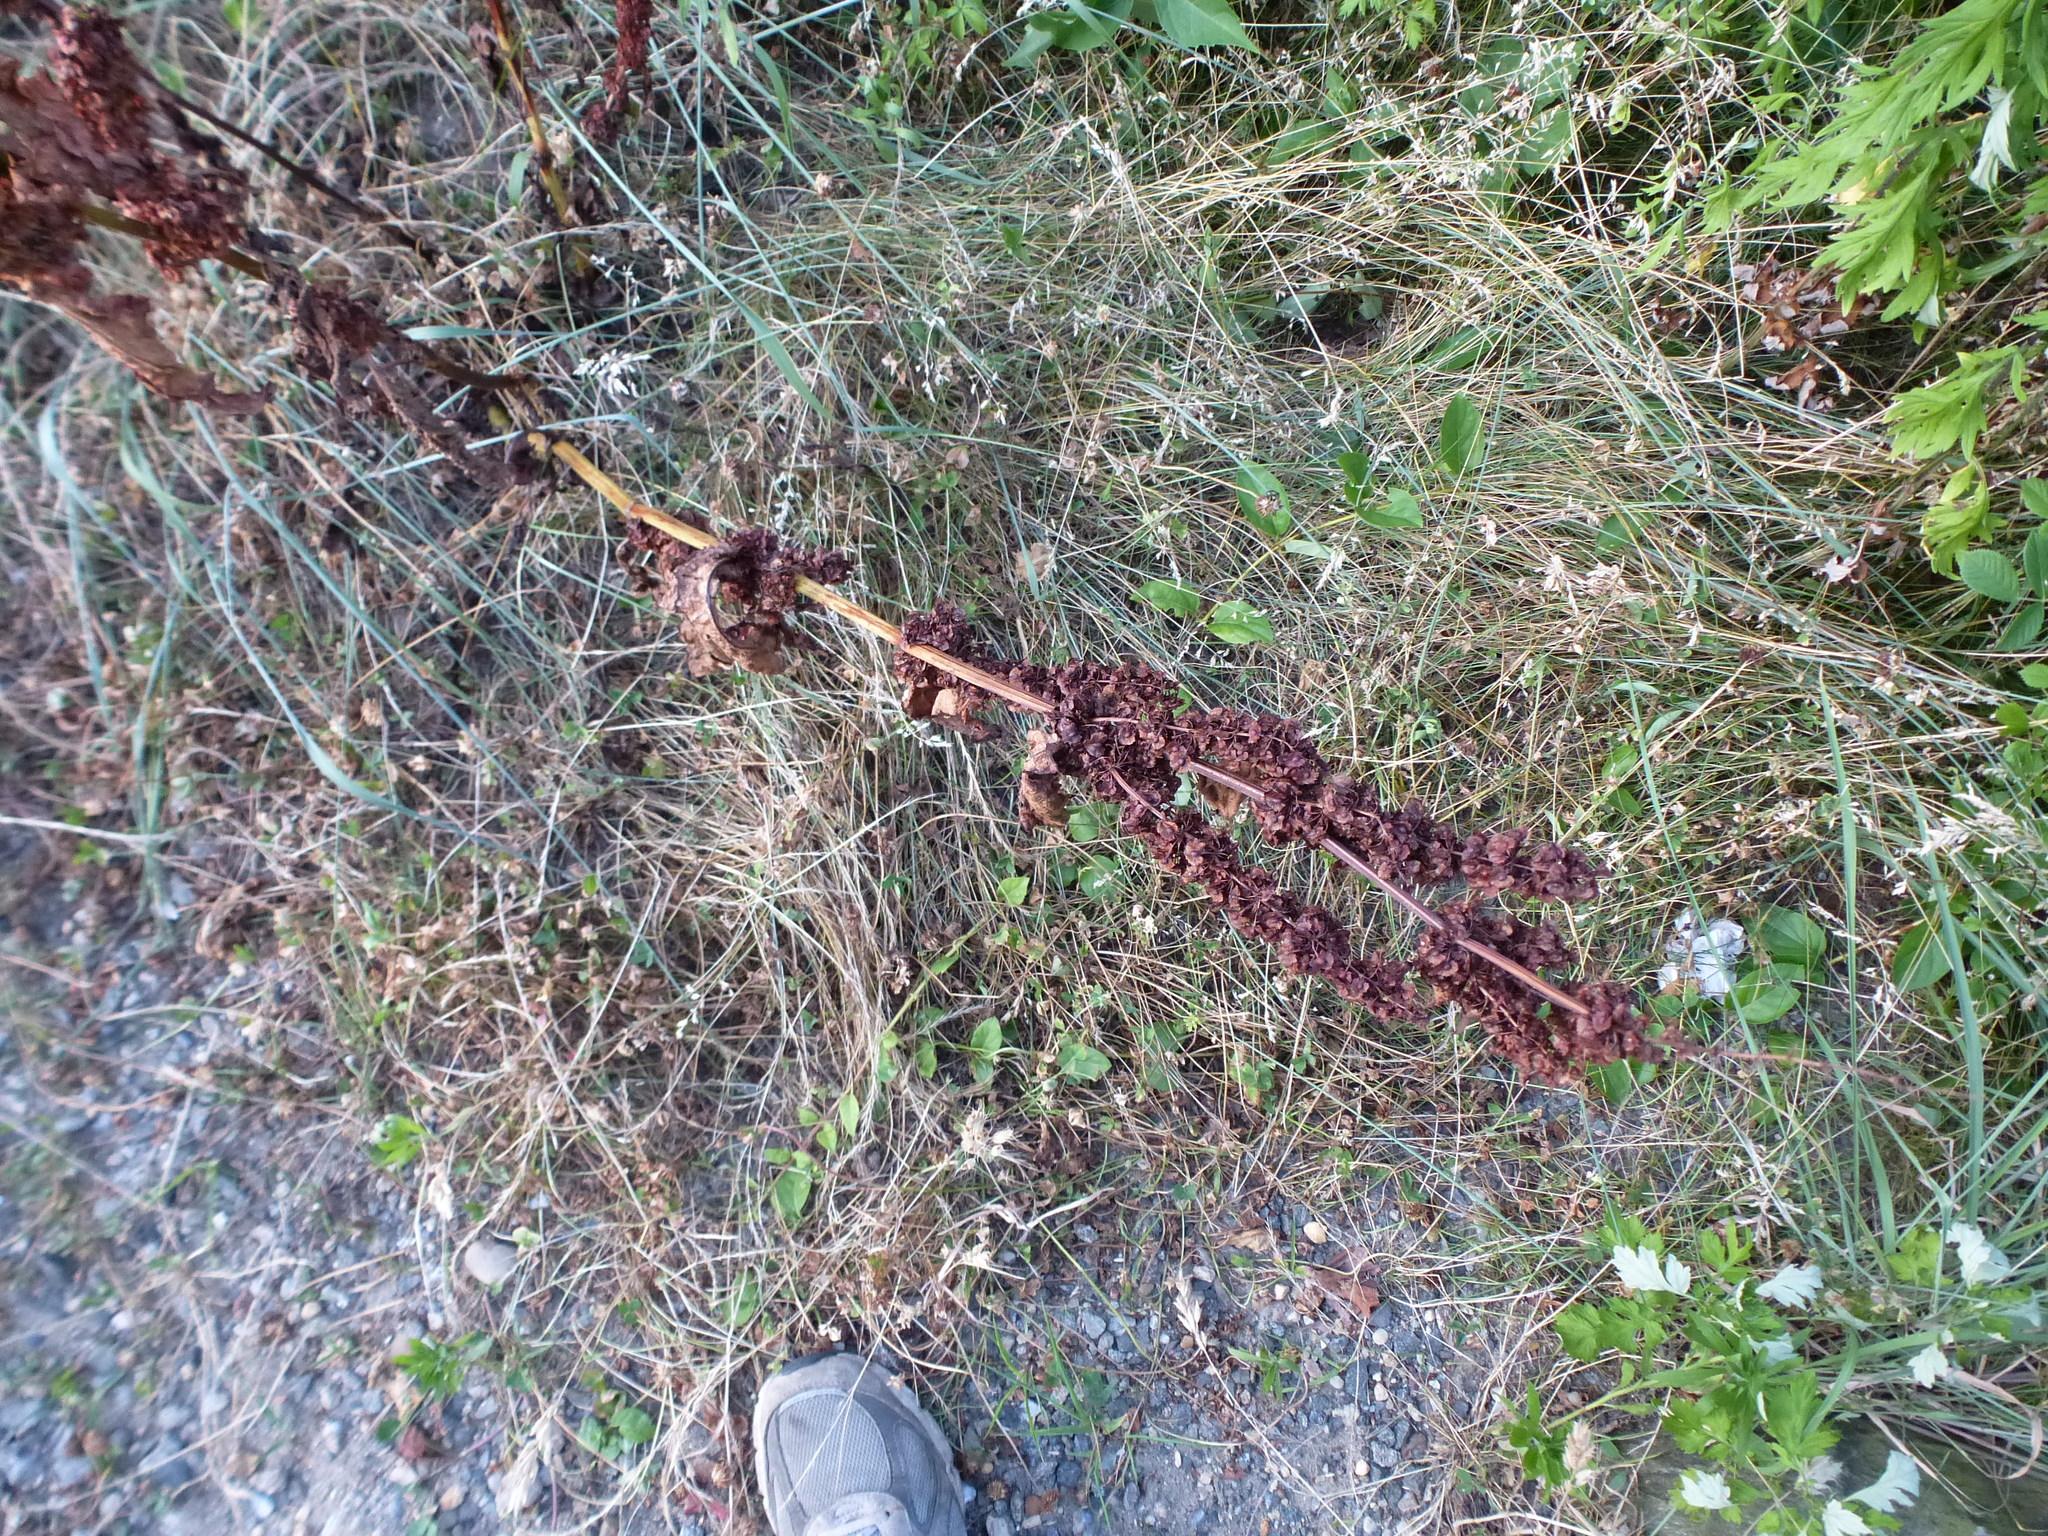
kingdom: Plantae
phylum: Tracheophyta
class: Magnoliopsida
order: Caryophyllales
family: Polygonaceae
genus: Rumex
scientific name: Rumex crispus
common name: Curled dock
